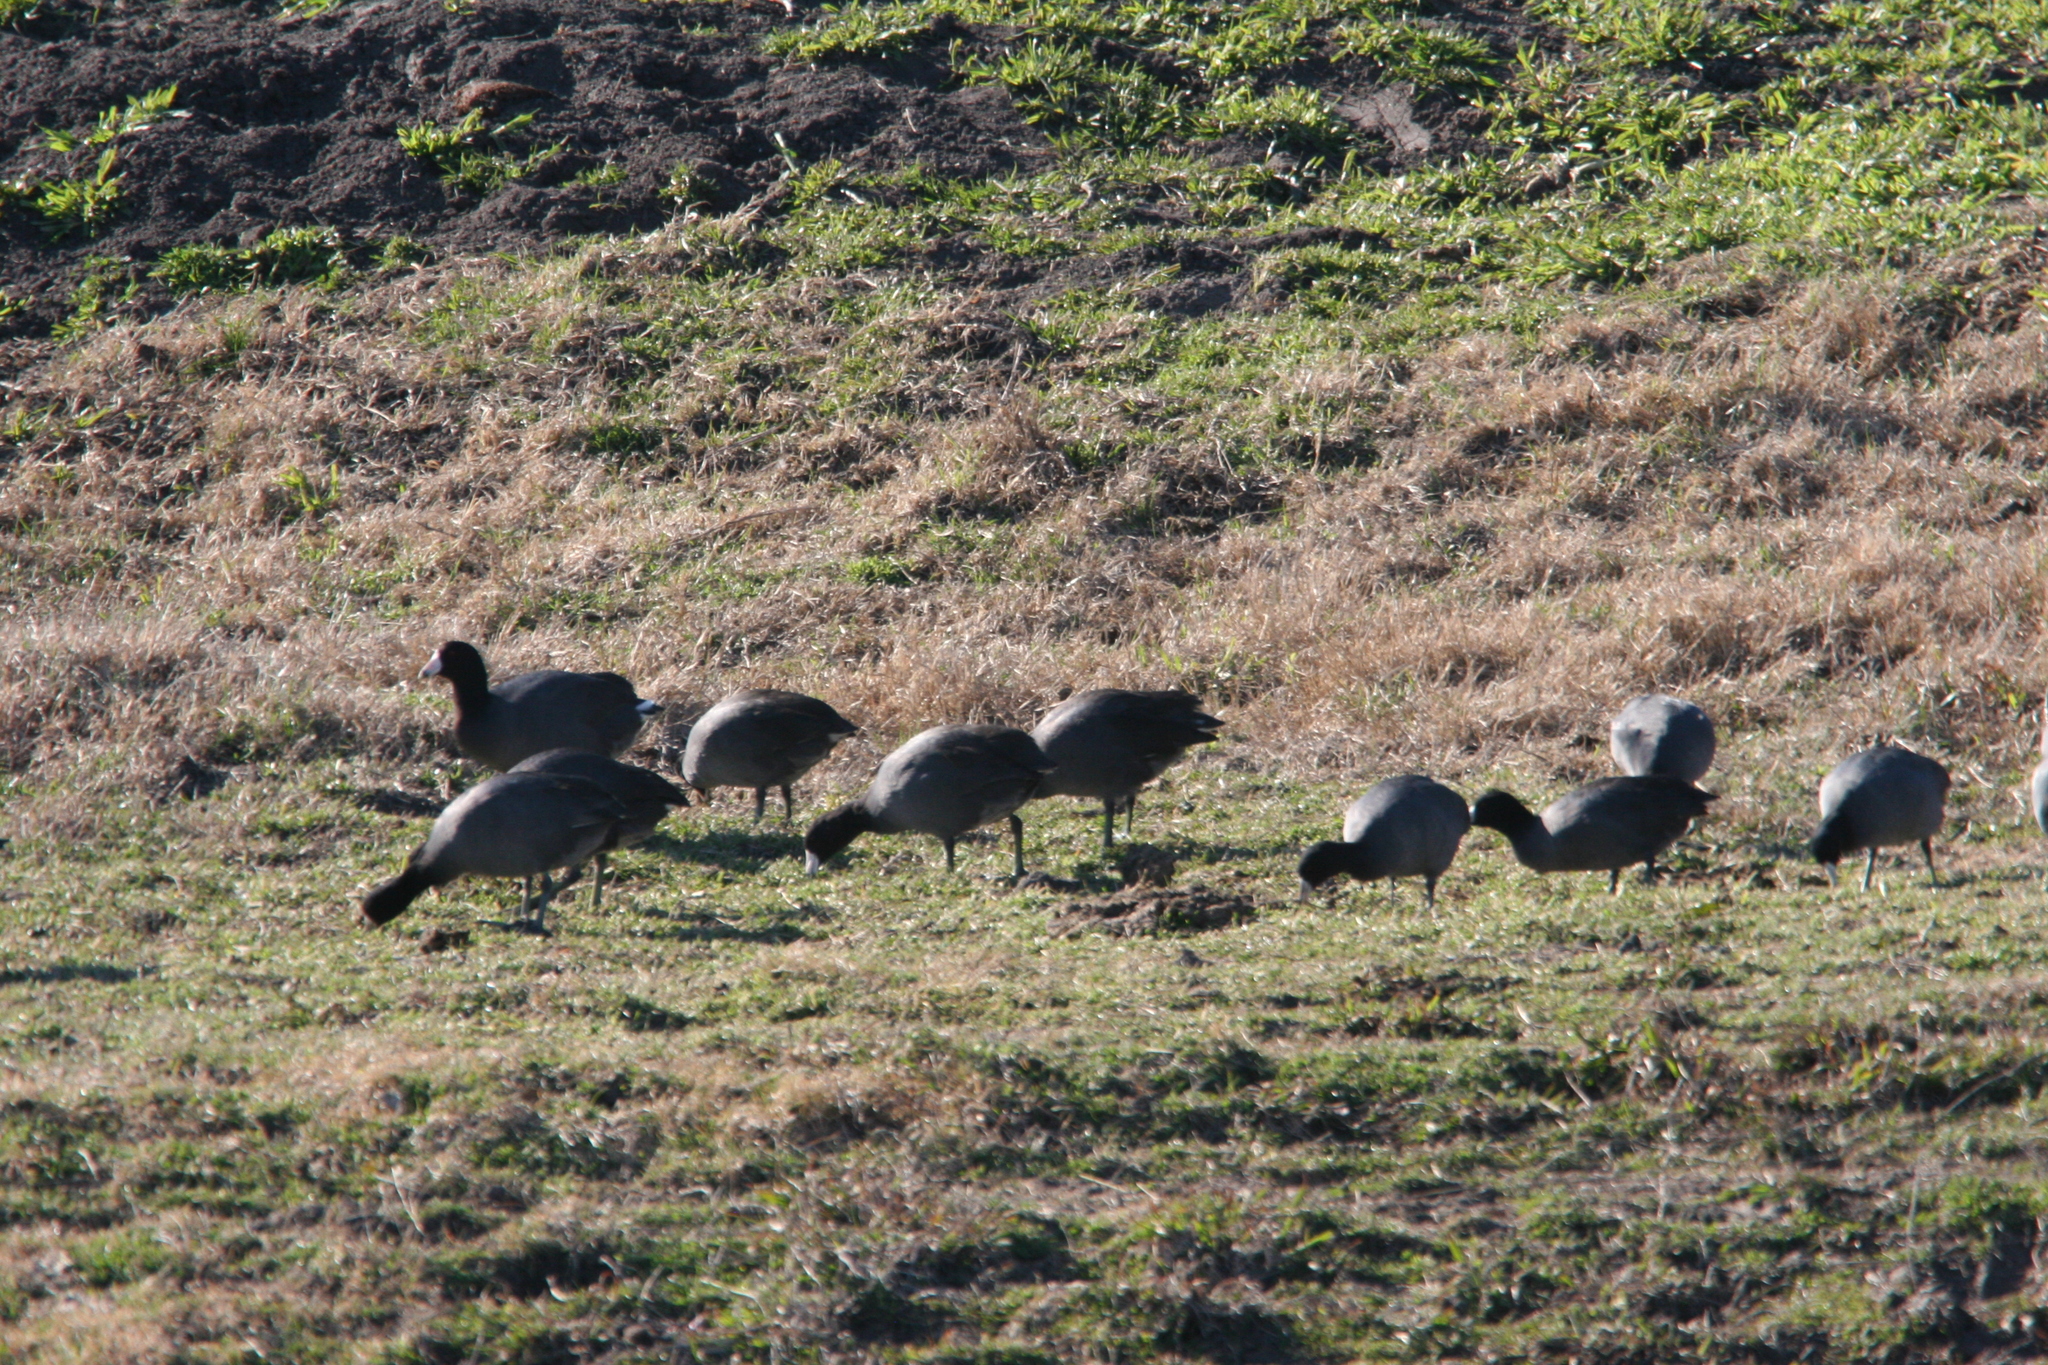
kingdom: Animalia
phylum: Chordata
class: Aves
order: Gruiformes
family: Rallidae
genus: Fulica
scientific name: Fulica americana
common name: American coot
